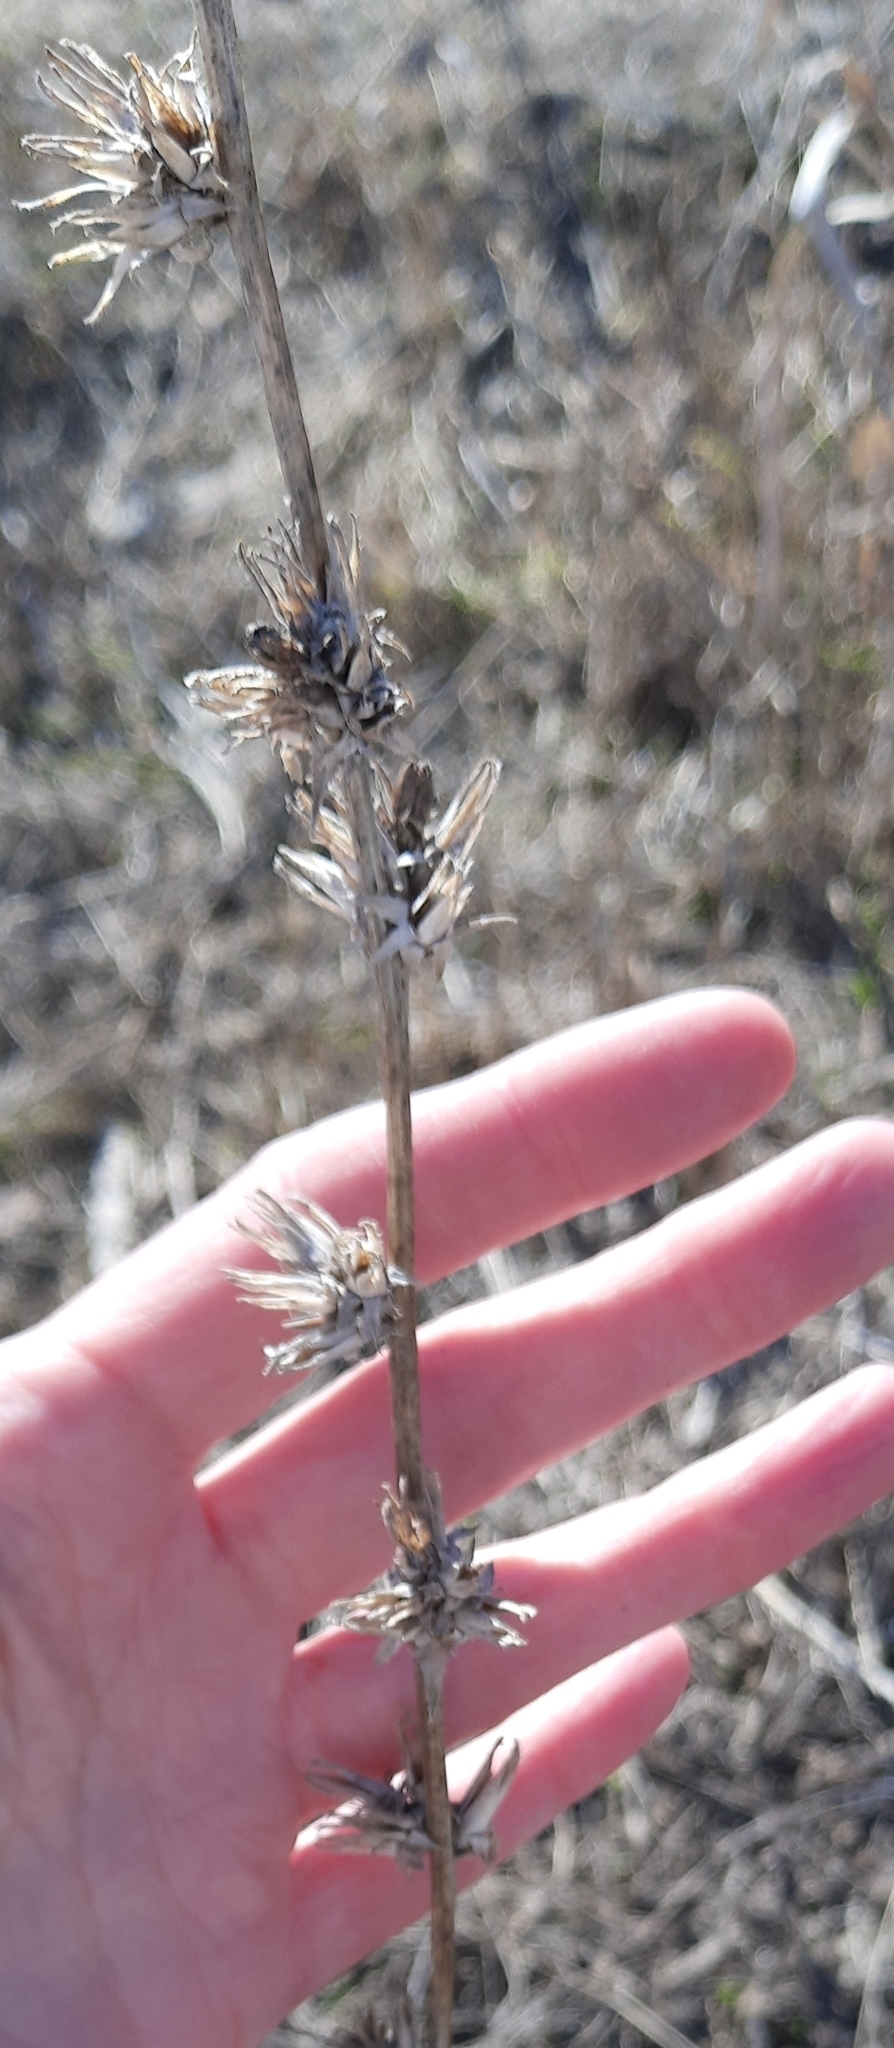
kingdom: Plantae
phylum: Tracheophyta
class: Magnoliopsida
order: Asterales
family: Asteraceae
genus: Cichorium
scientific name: Cichorium intybus
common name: Chicory
